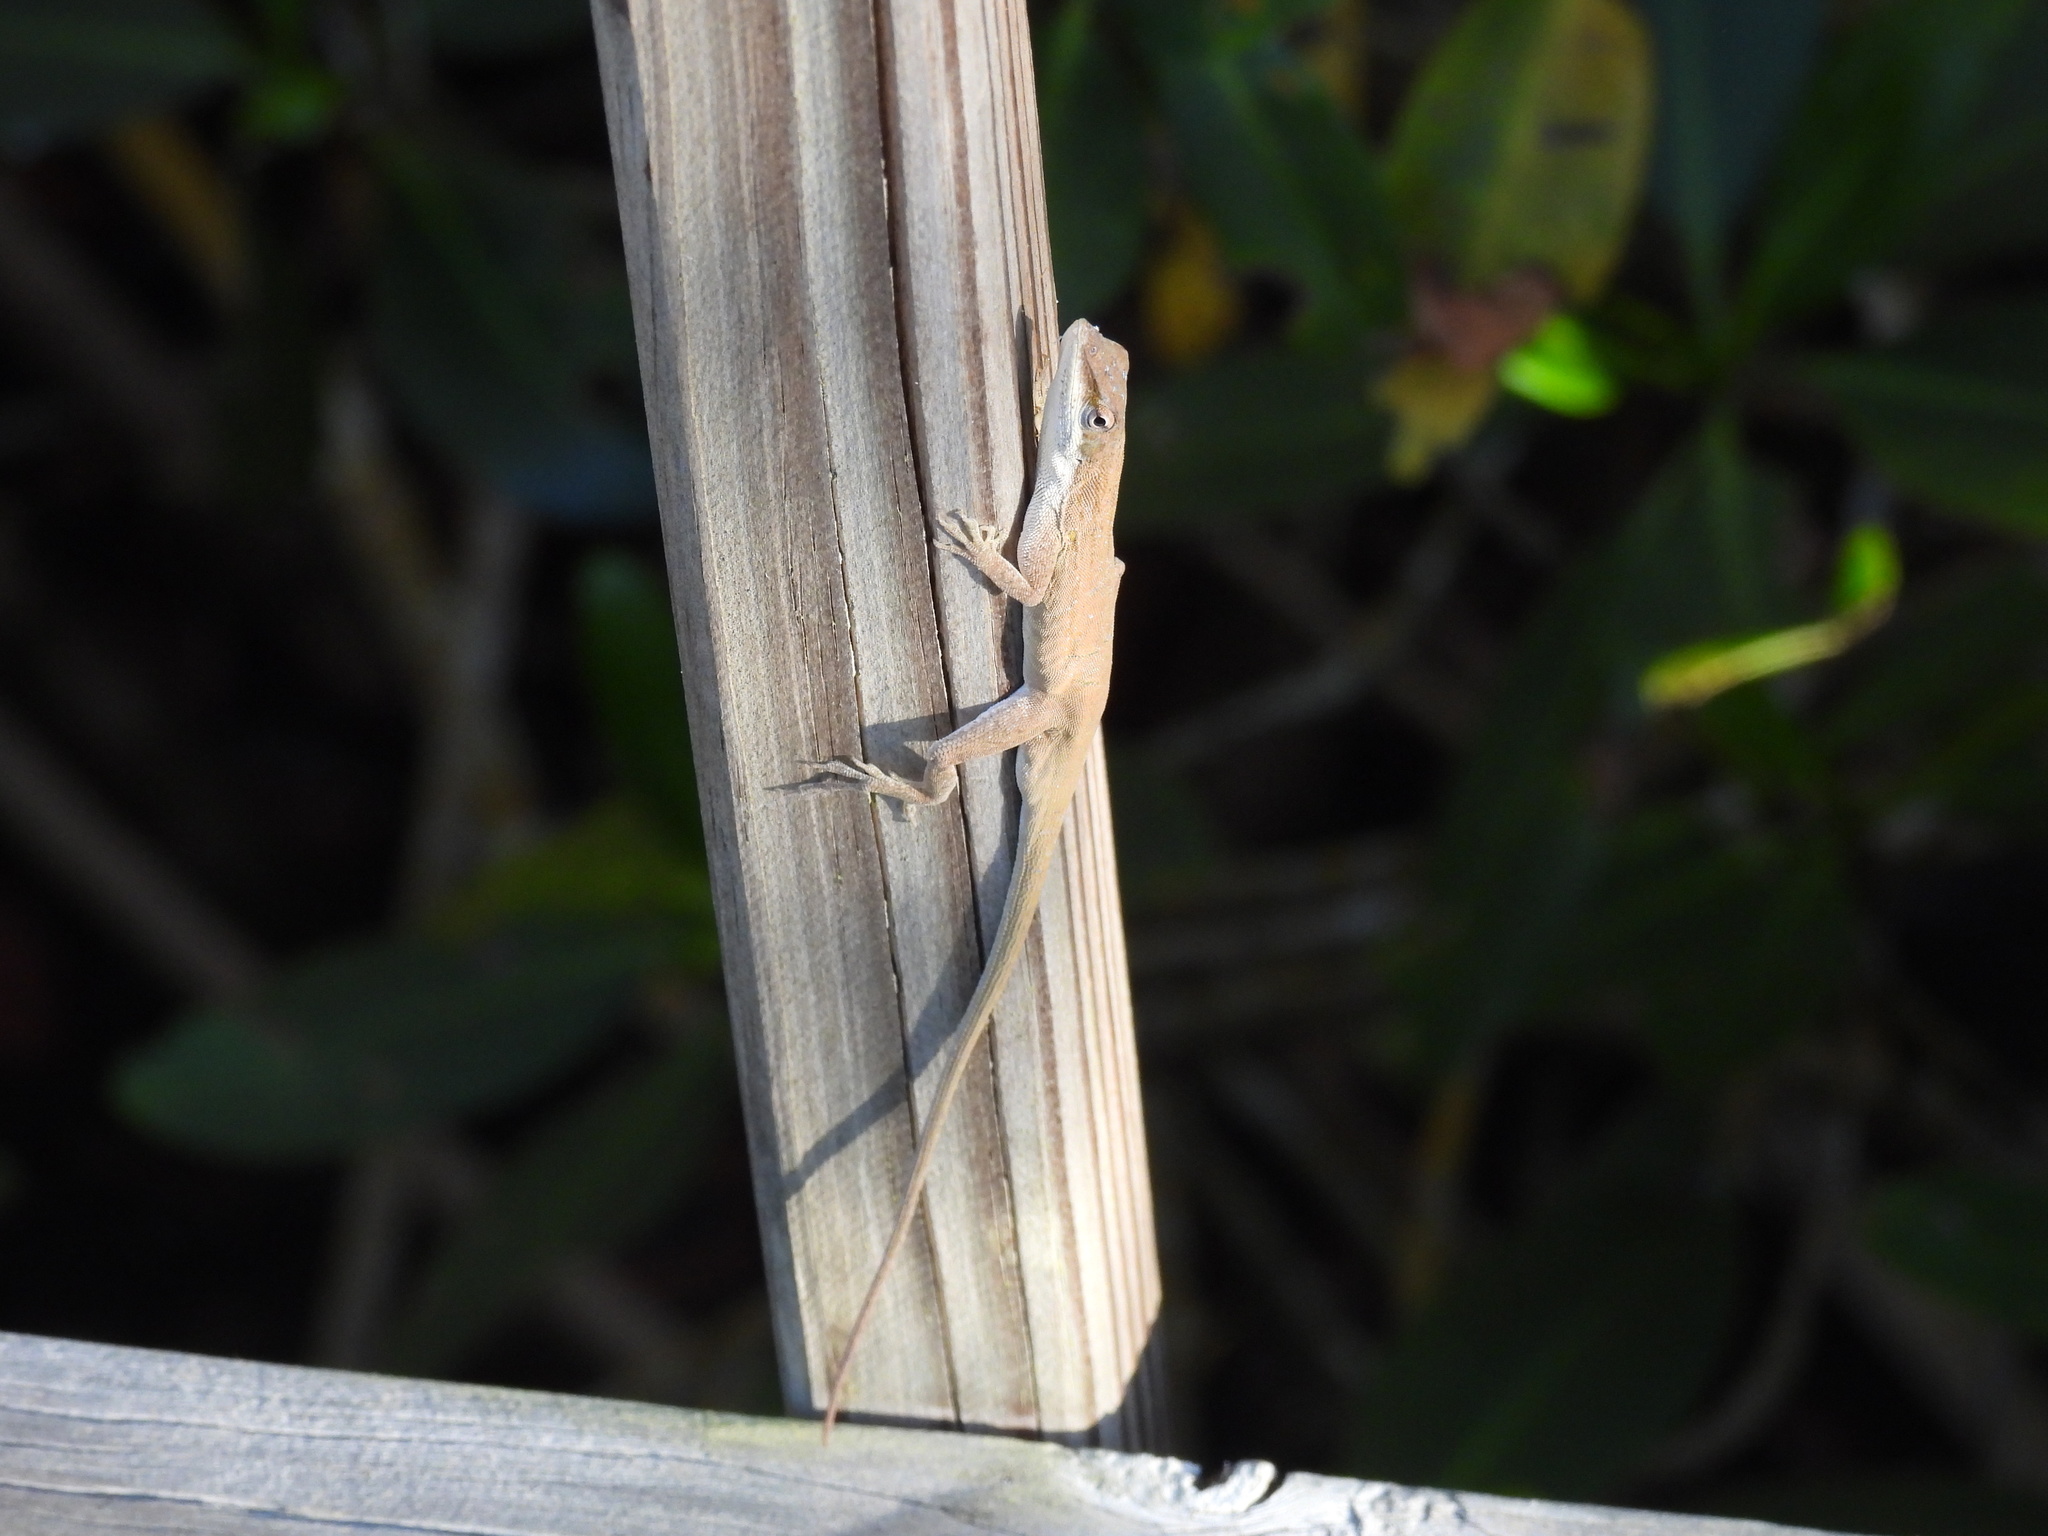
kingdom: Animalia
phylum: Chordata
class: Squamata
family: Dactyloidae
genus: Anolis
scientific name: Anolis carolinensis
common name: Green anole
